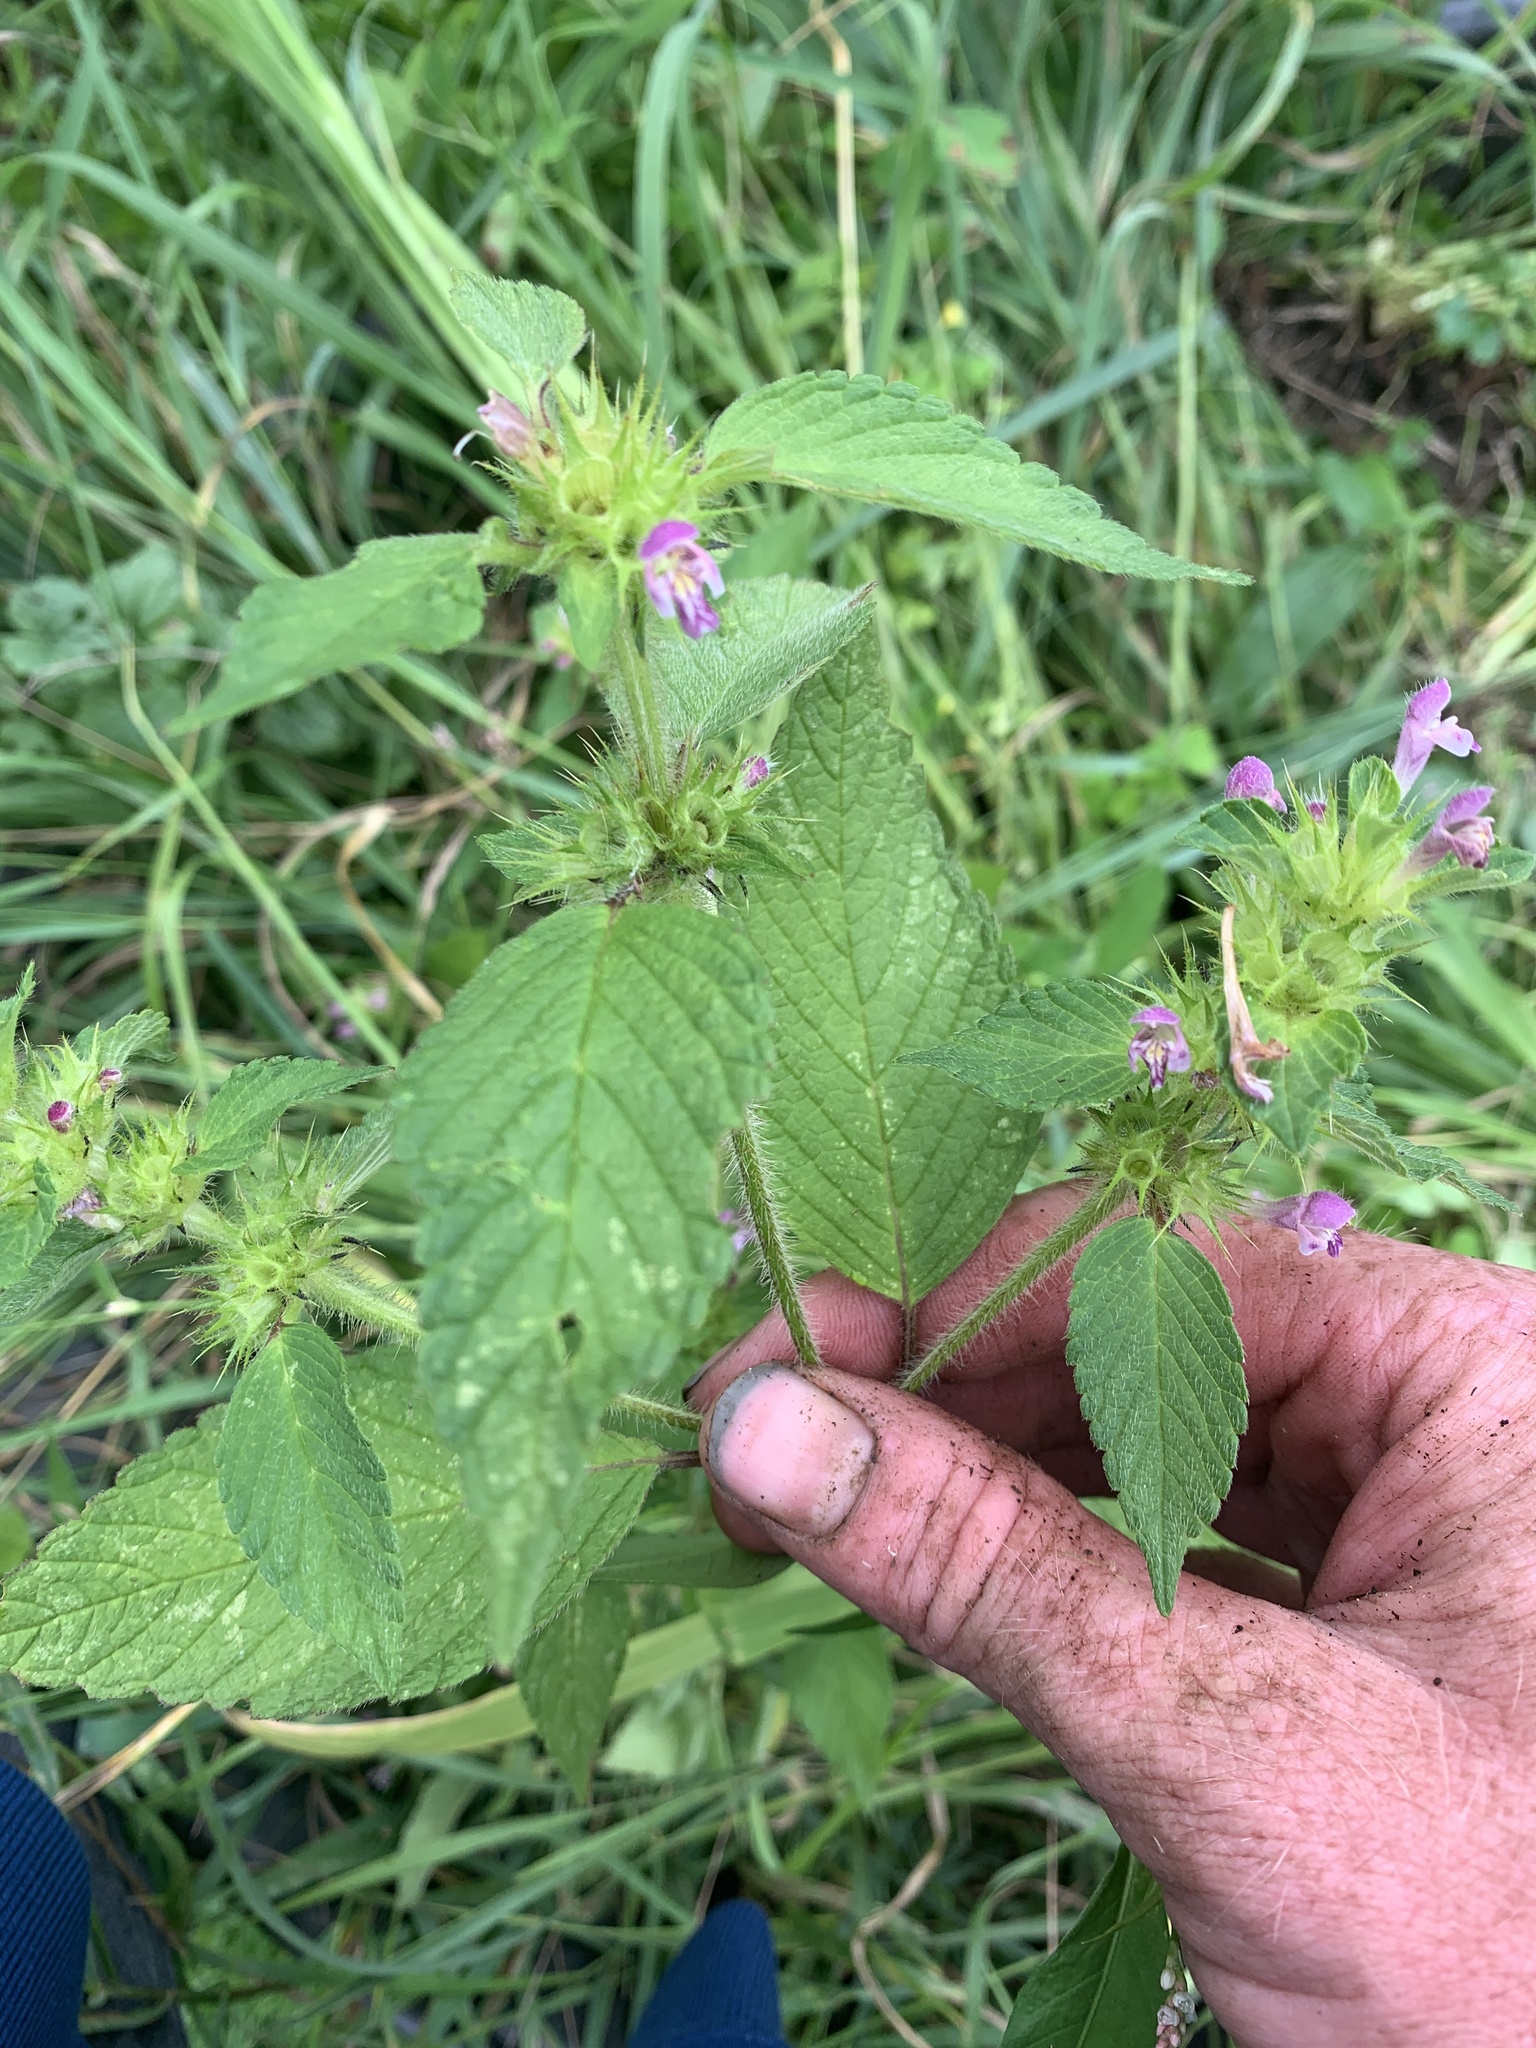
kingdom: Plantae
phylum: Tracheophyta
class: Magnoliopsida
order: Lamiales
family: Lamiaceae
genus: Galeopsis
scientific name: Galeopsis
